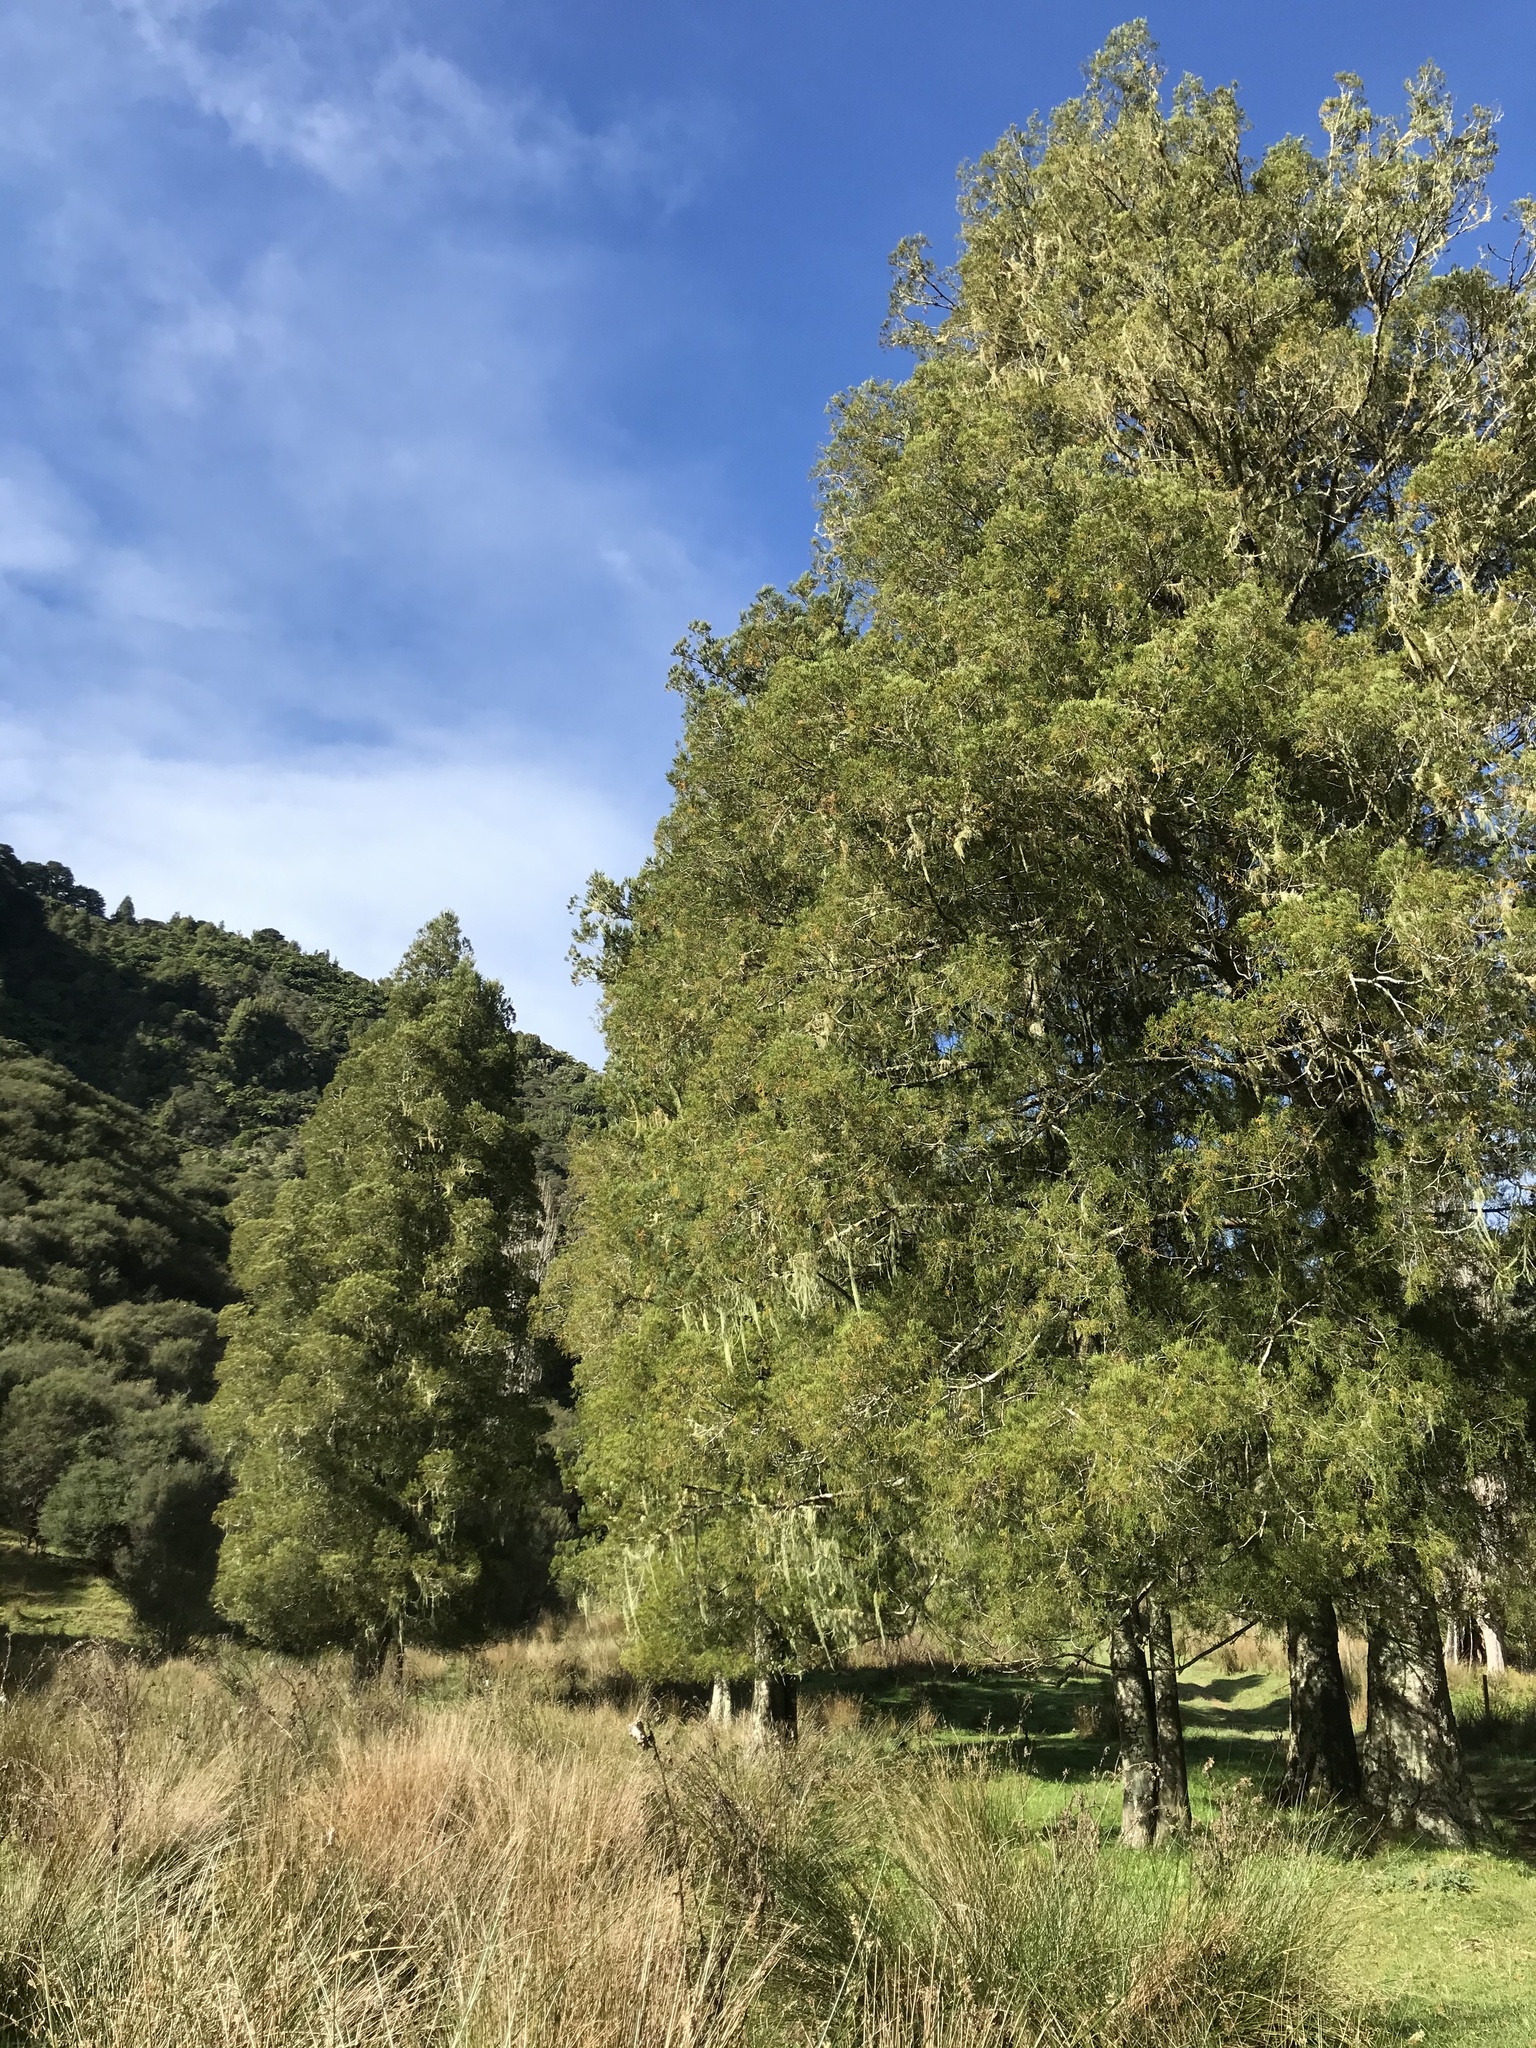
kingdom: Plantae
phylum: Tracheophyta
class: Pinopsida
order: Pinales
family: Podocarpaceae
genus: Dacrycarpus
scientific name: Dacrycarpus dacrydioides
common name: White pine
